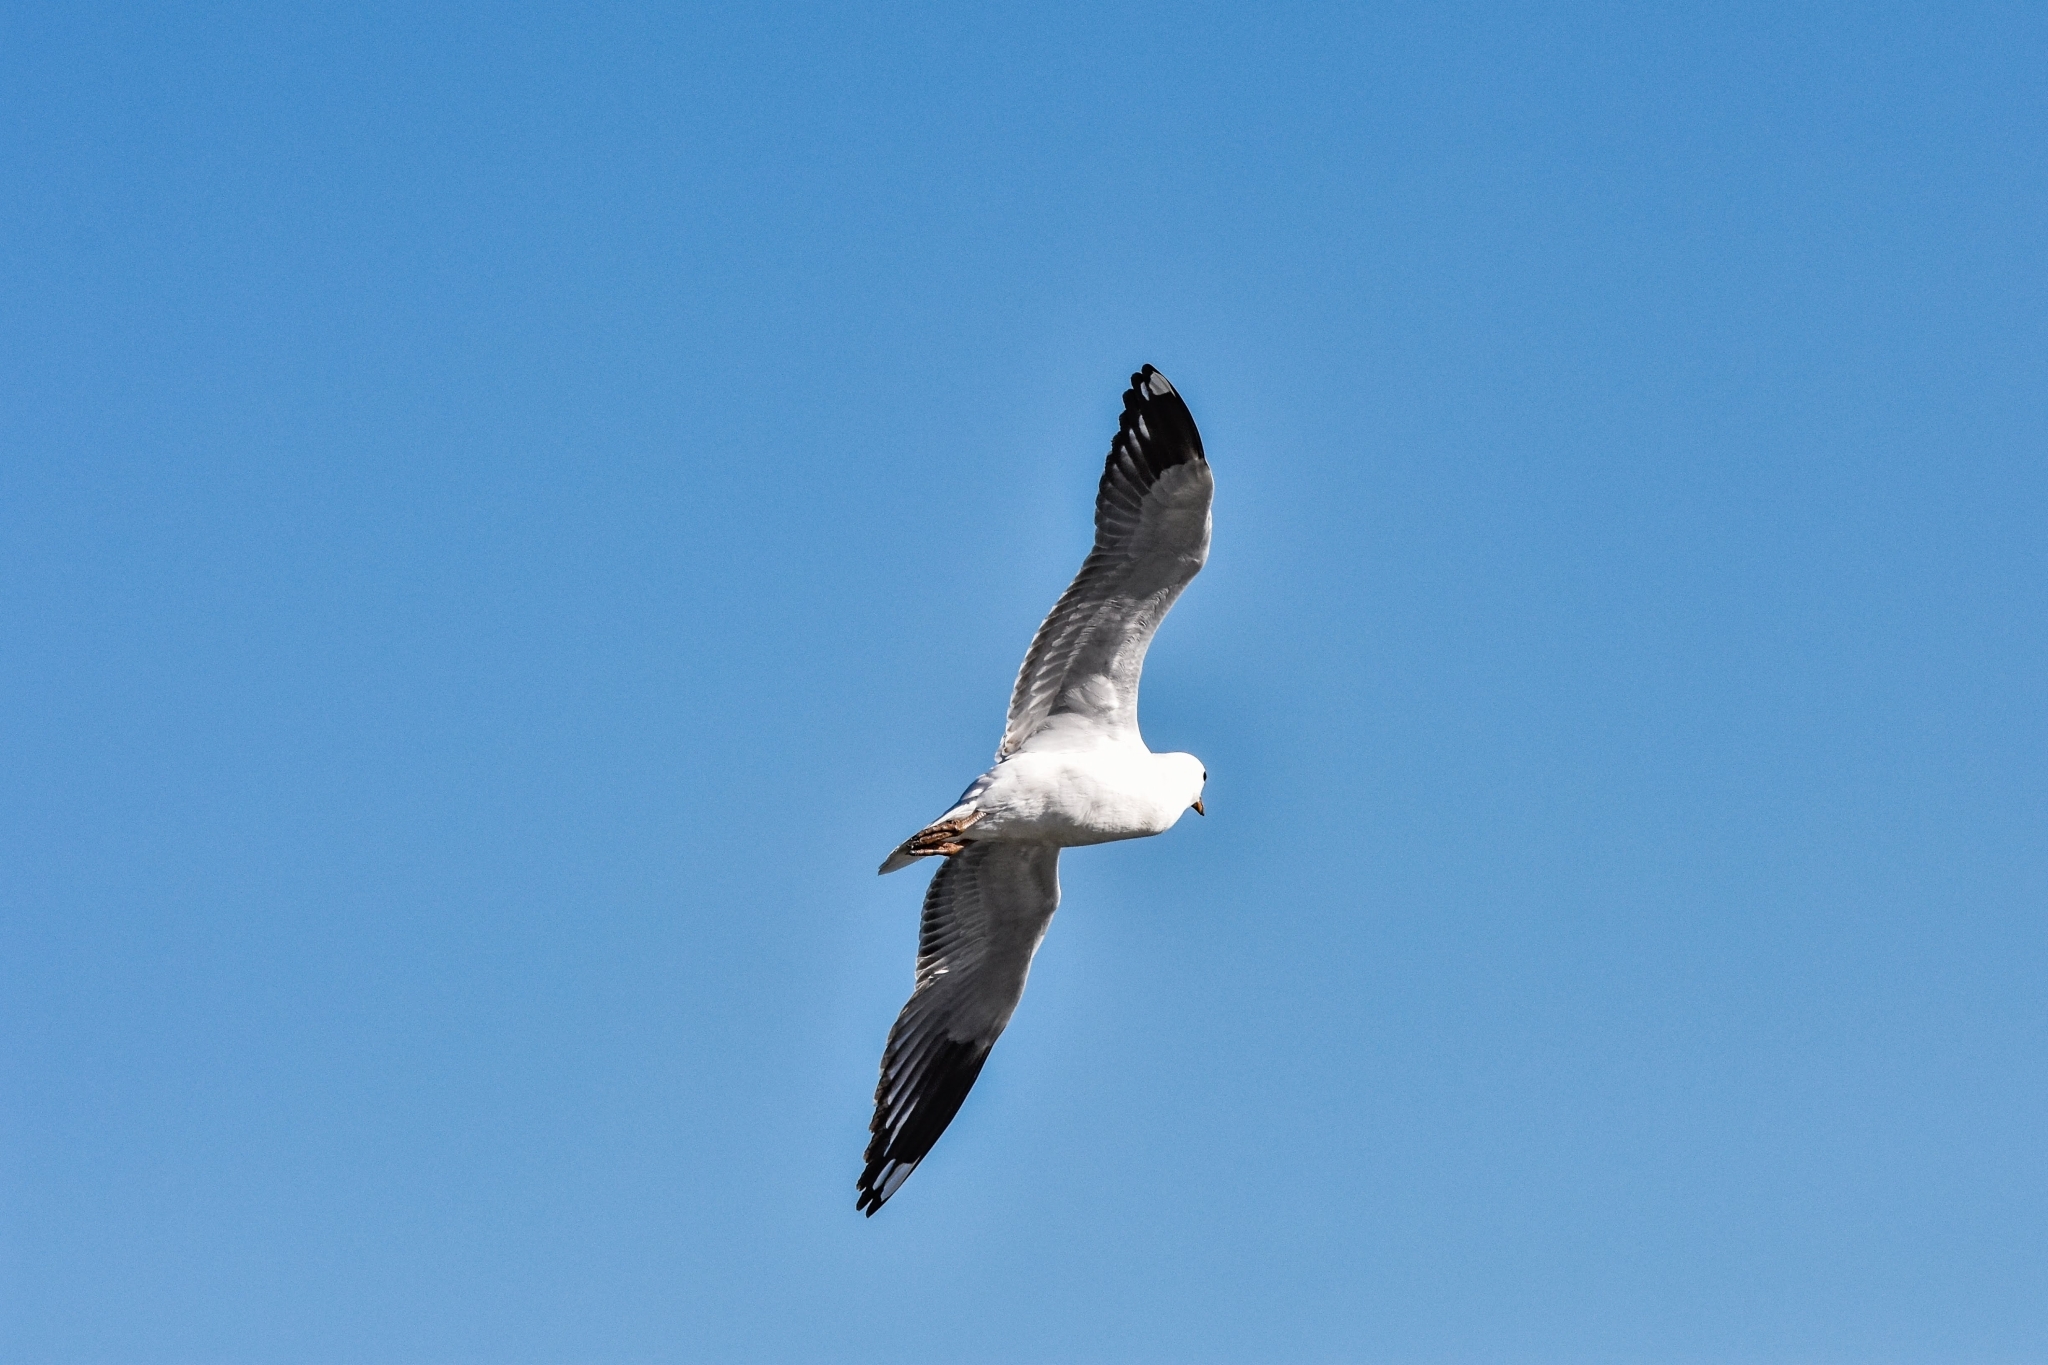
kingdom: Animalia
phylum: Chordata
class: Aves
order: Charadriiformes
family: Laridae
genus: Chroicocephalus
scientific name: Chroicocephalus novaehollandiae
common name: Silver gull
